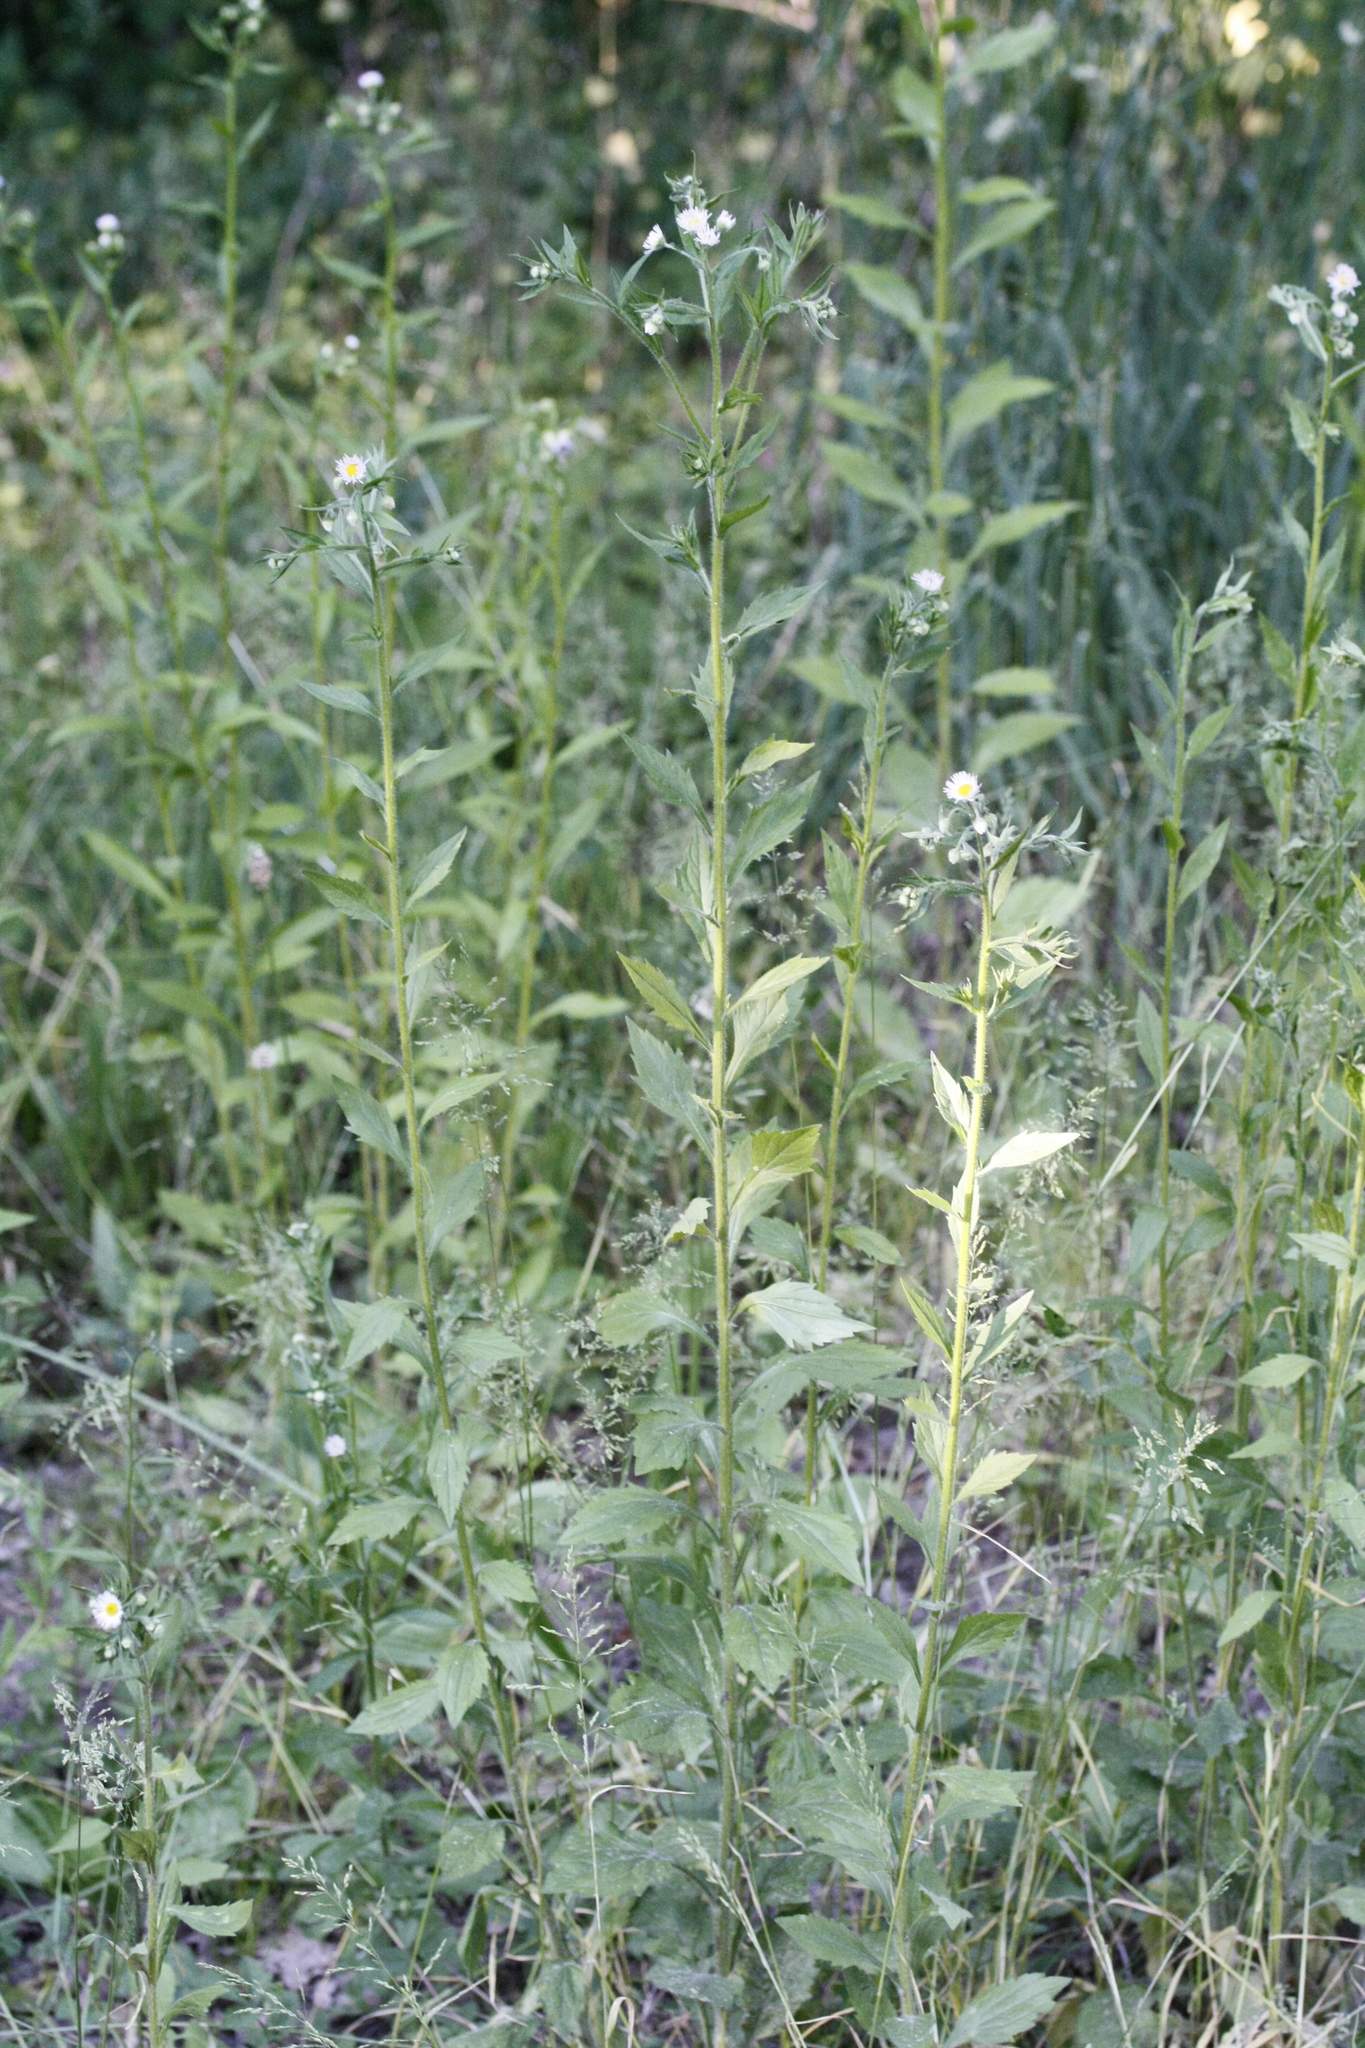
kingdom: Plantae
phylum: Tracheophyta
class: Magnoliopsida
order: Asterales
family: Asteraceae
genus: Erigeron
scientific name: Erigeron annuus
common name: Tall fleabane
